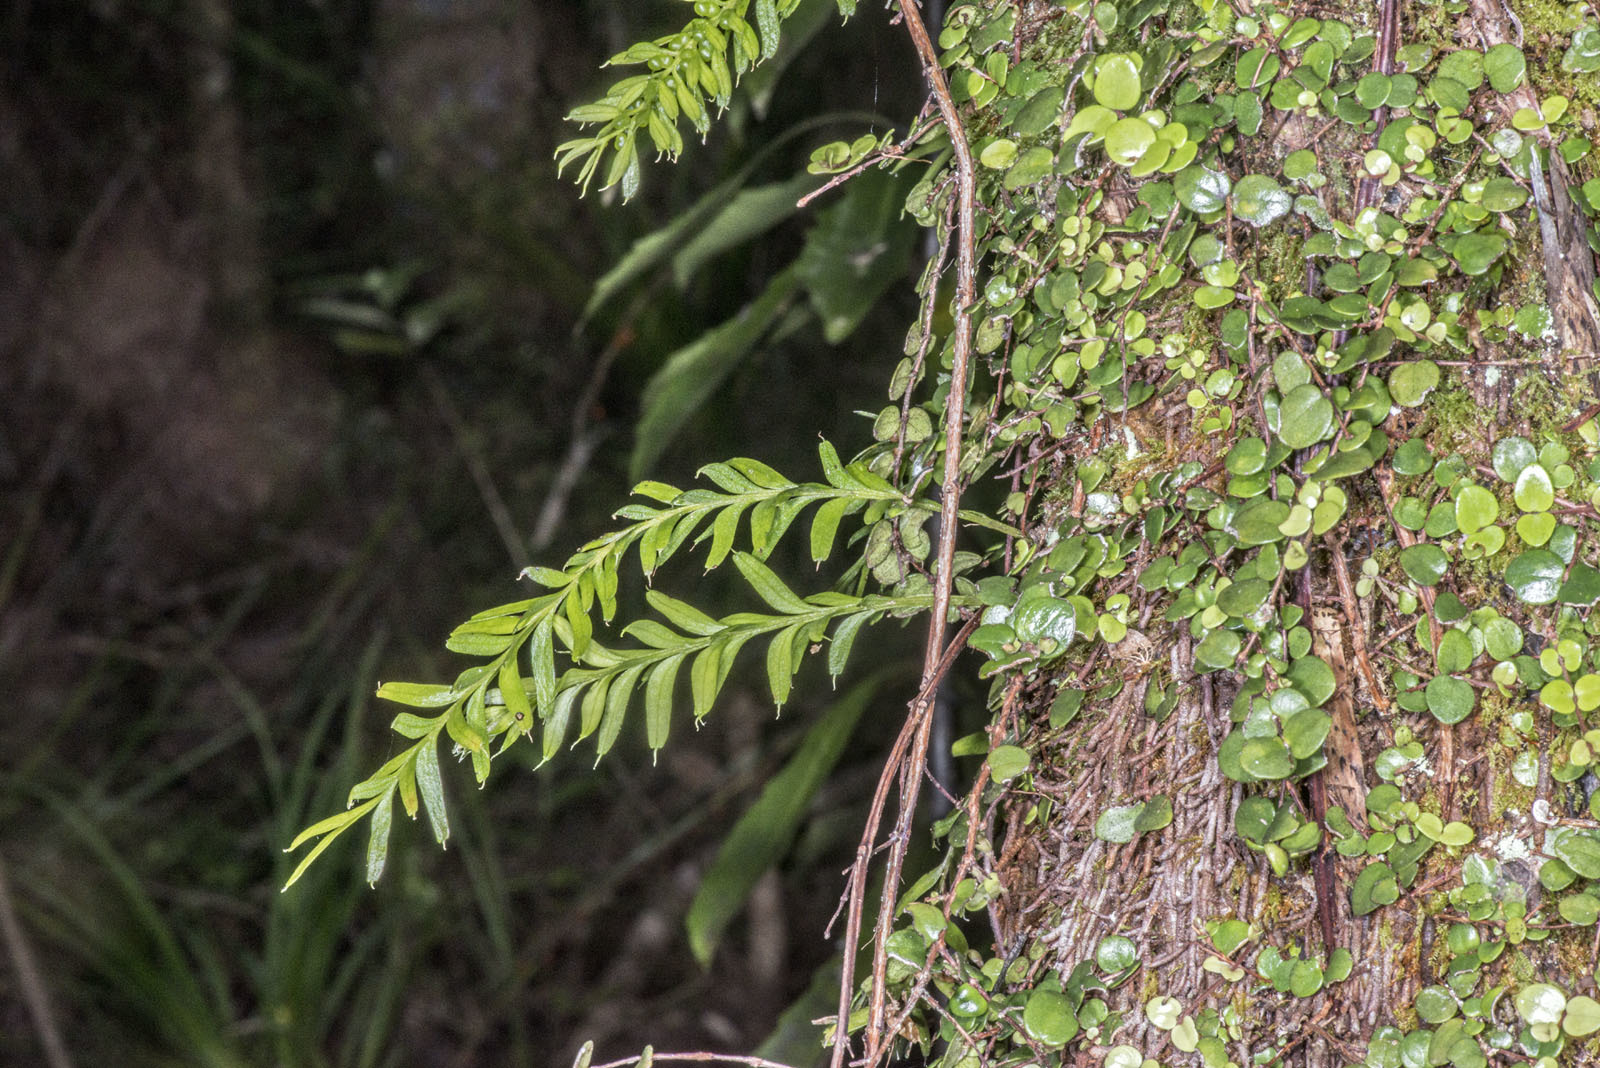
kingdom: Plantae
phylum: Tracheophyta
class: Polypodiopsida
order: Psilotales
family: Psilotaceae
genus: Tmesipteris
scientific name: Tmesipteris sigmatifolia
